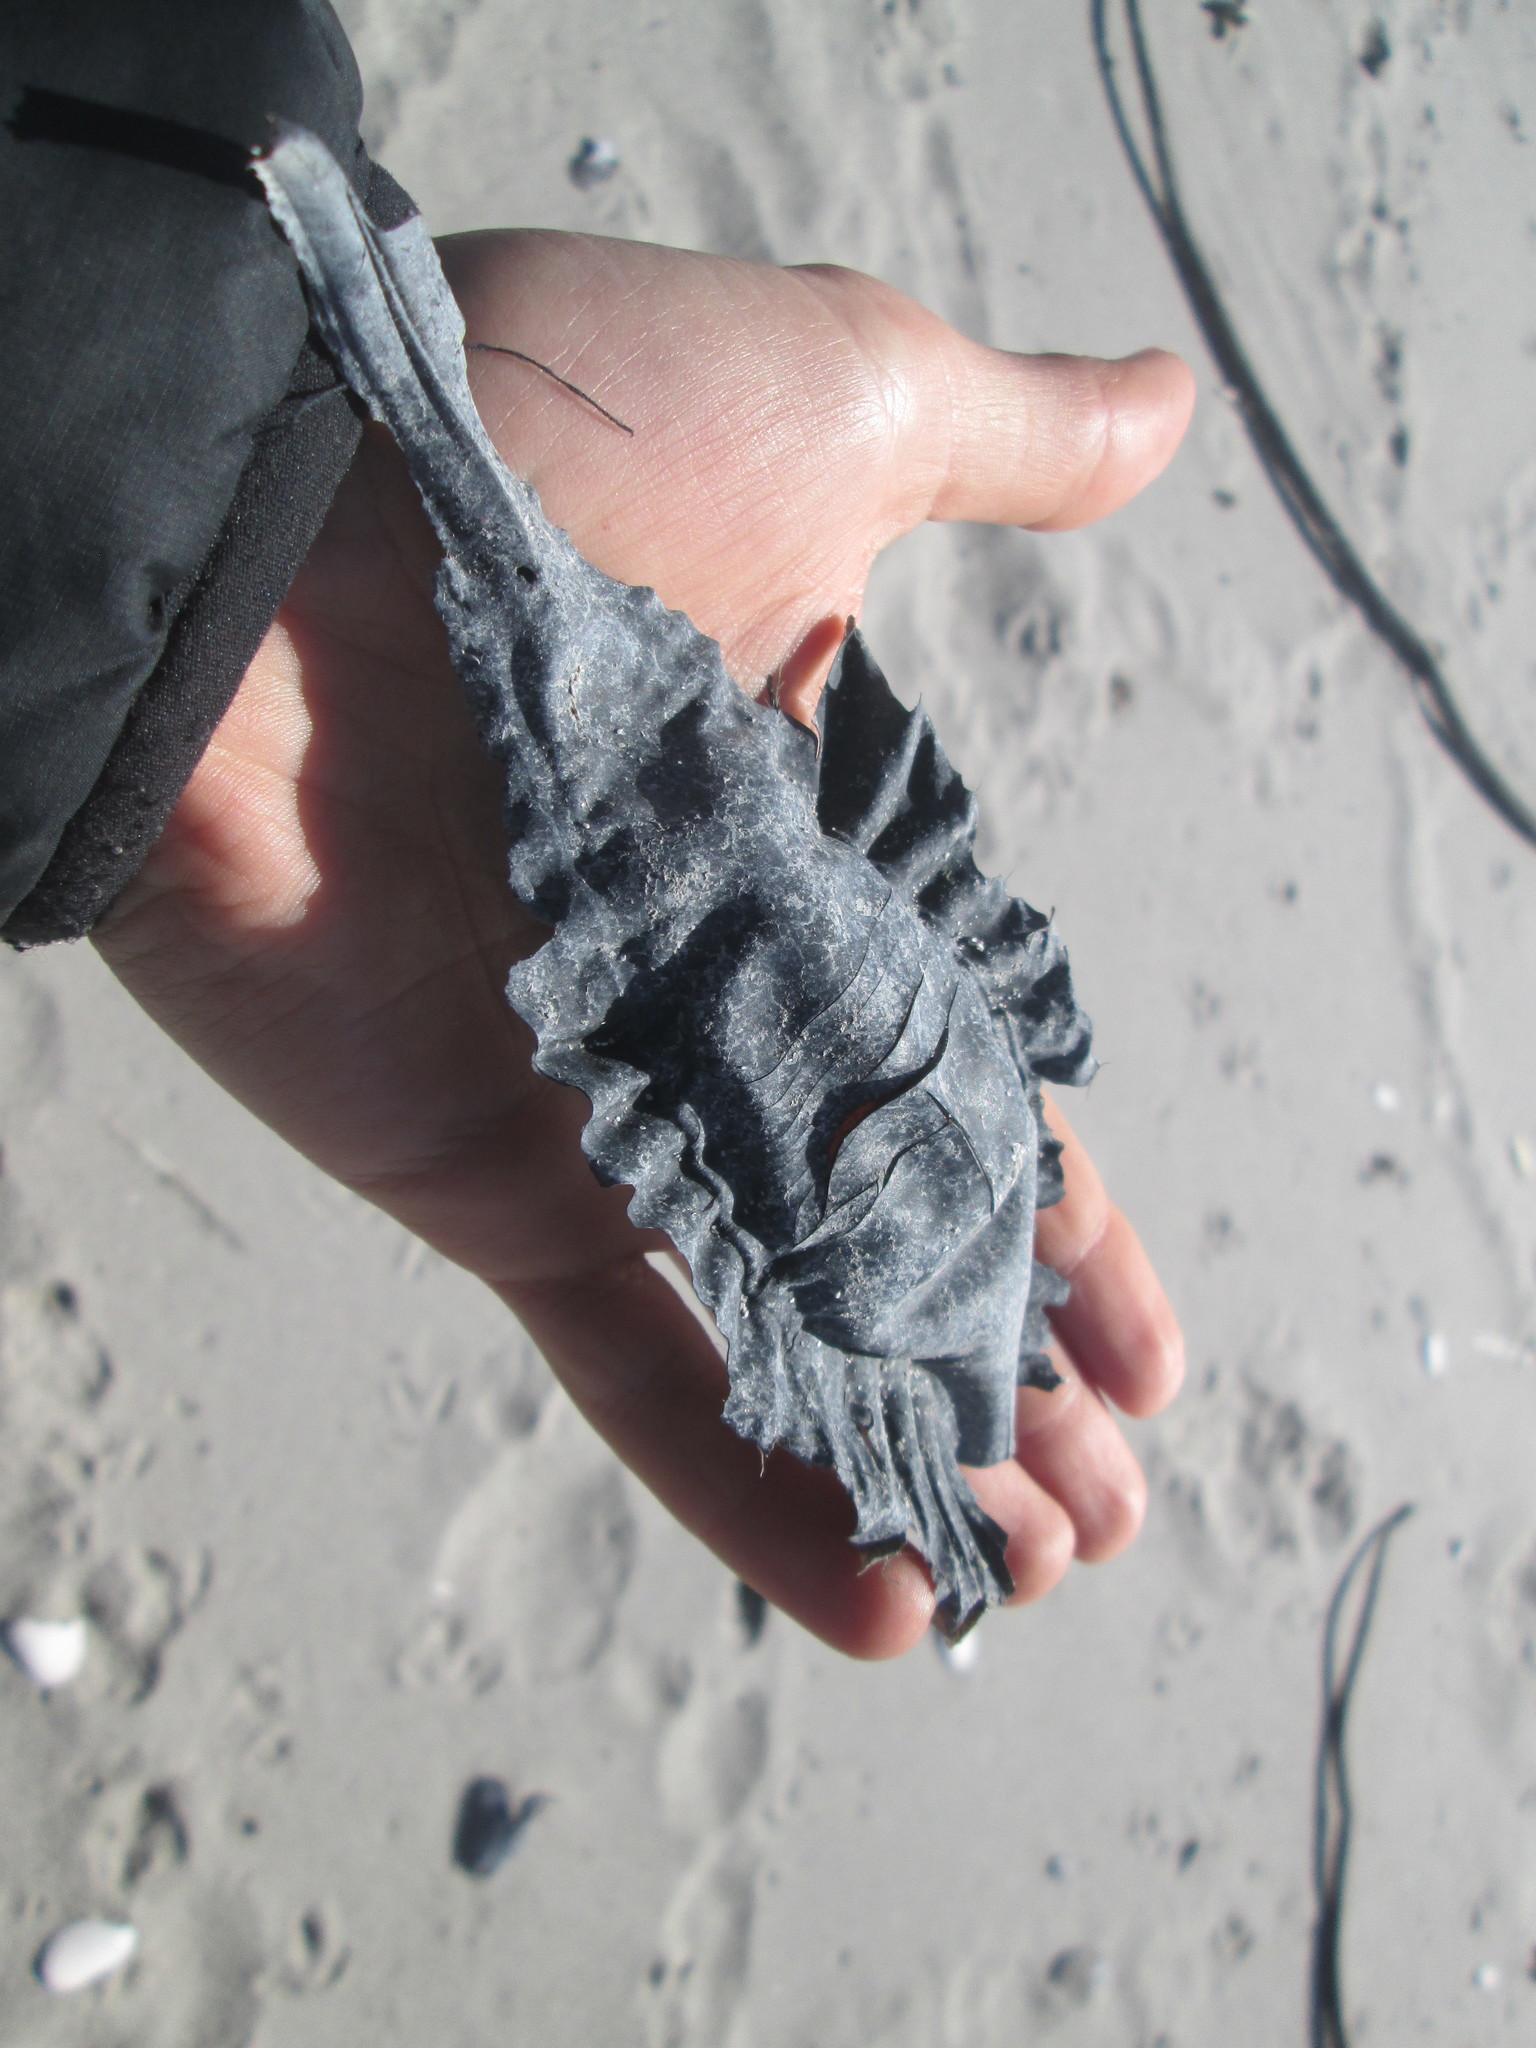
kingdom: Animalia
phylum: Chordata
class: Holocephali
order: Chimaeriformes
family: Callorhinchidae
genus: Callorhinchus
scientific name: Callorhinchus capensis
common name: Cape elephantfish
